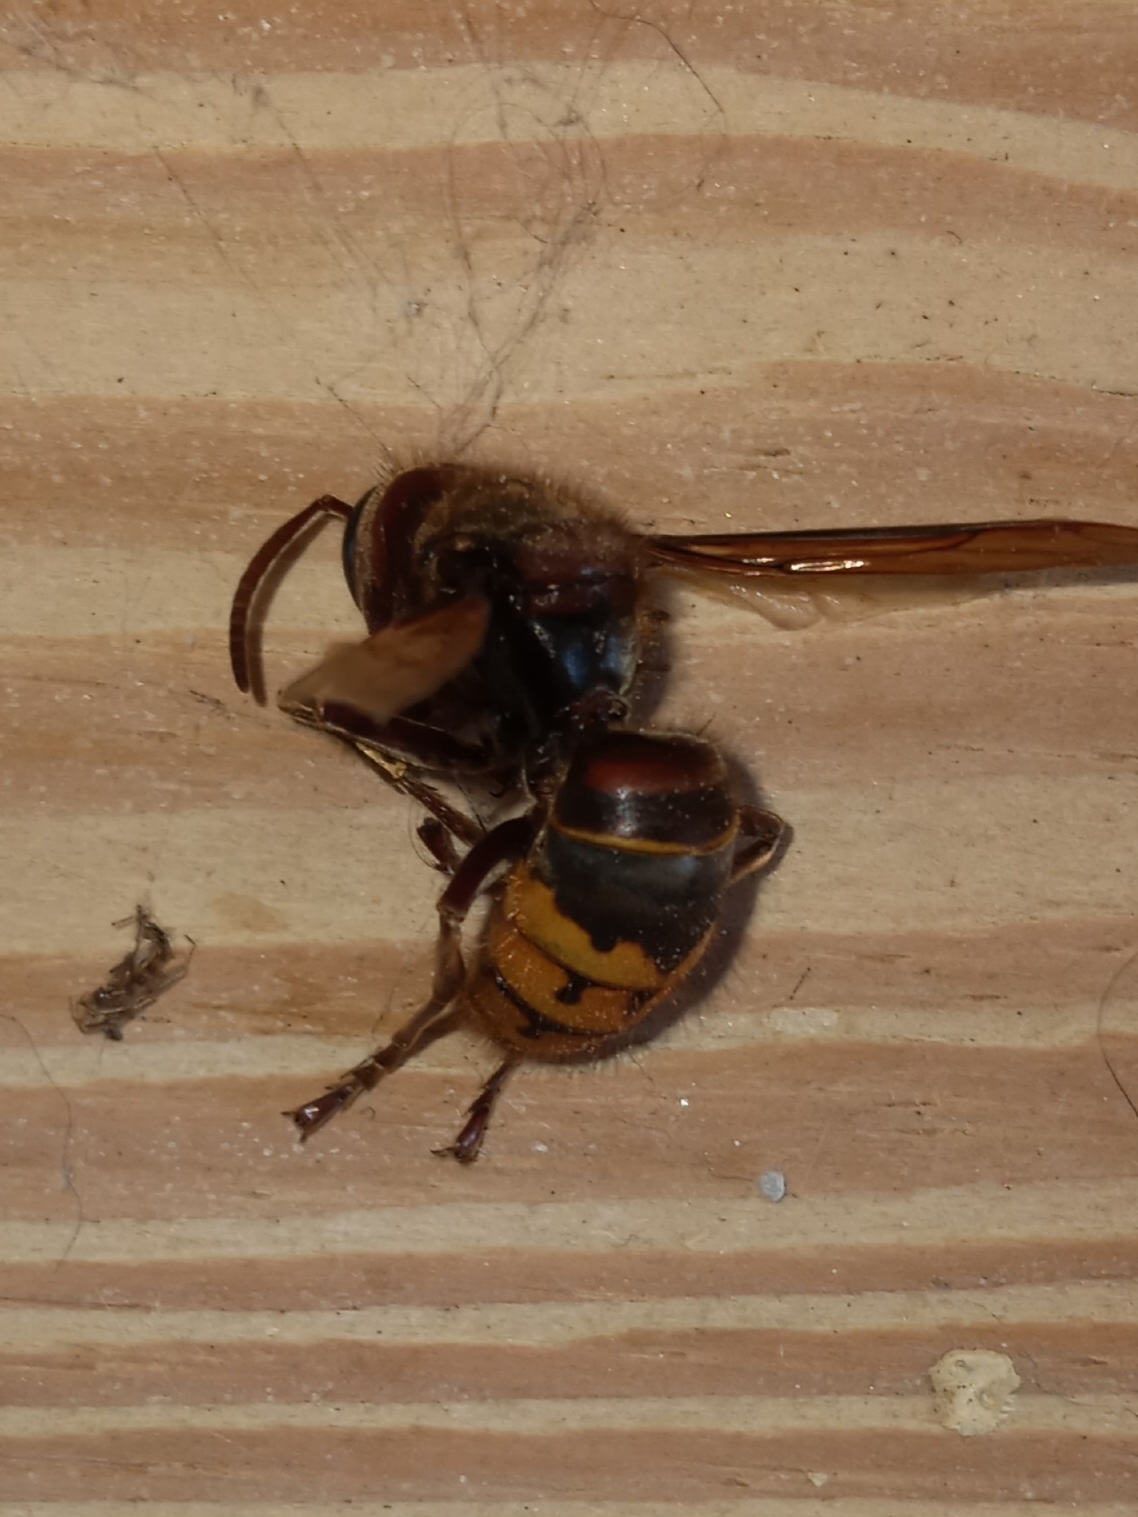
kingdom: Animalia
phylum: Arthropoda
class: Insecta
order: Hymenoptera
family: Vespidae
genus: Vespa
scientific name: Vespa crabro
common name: Hornet
